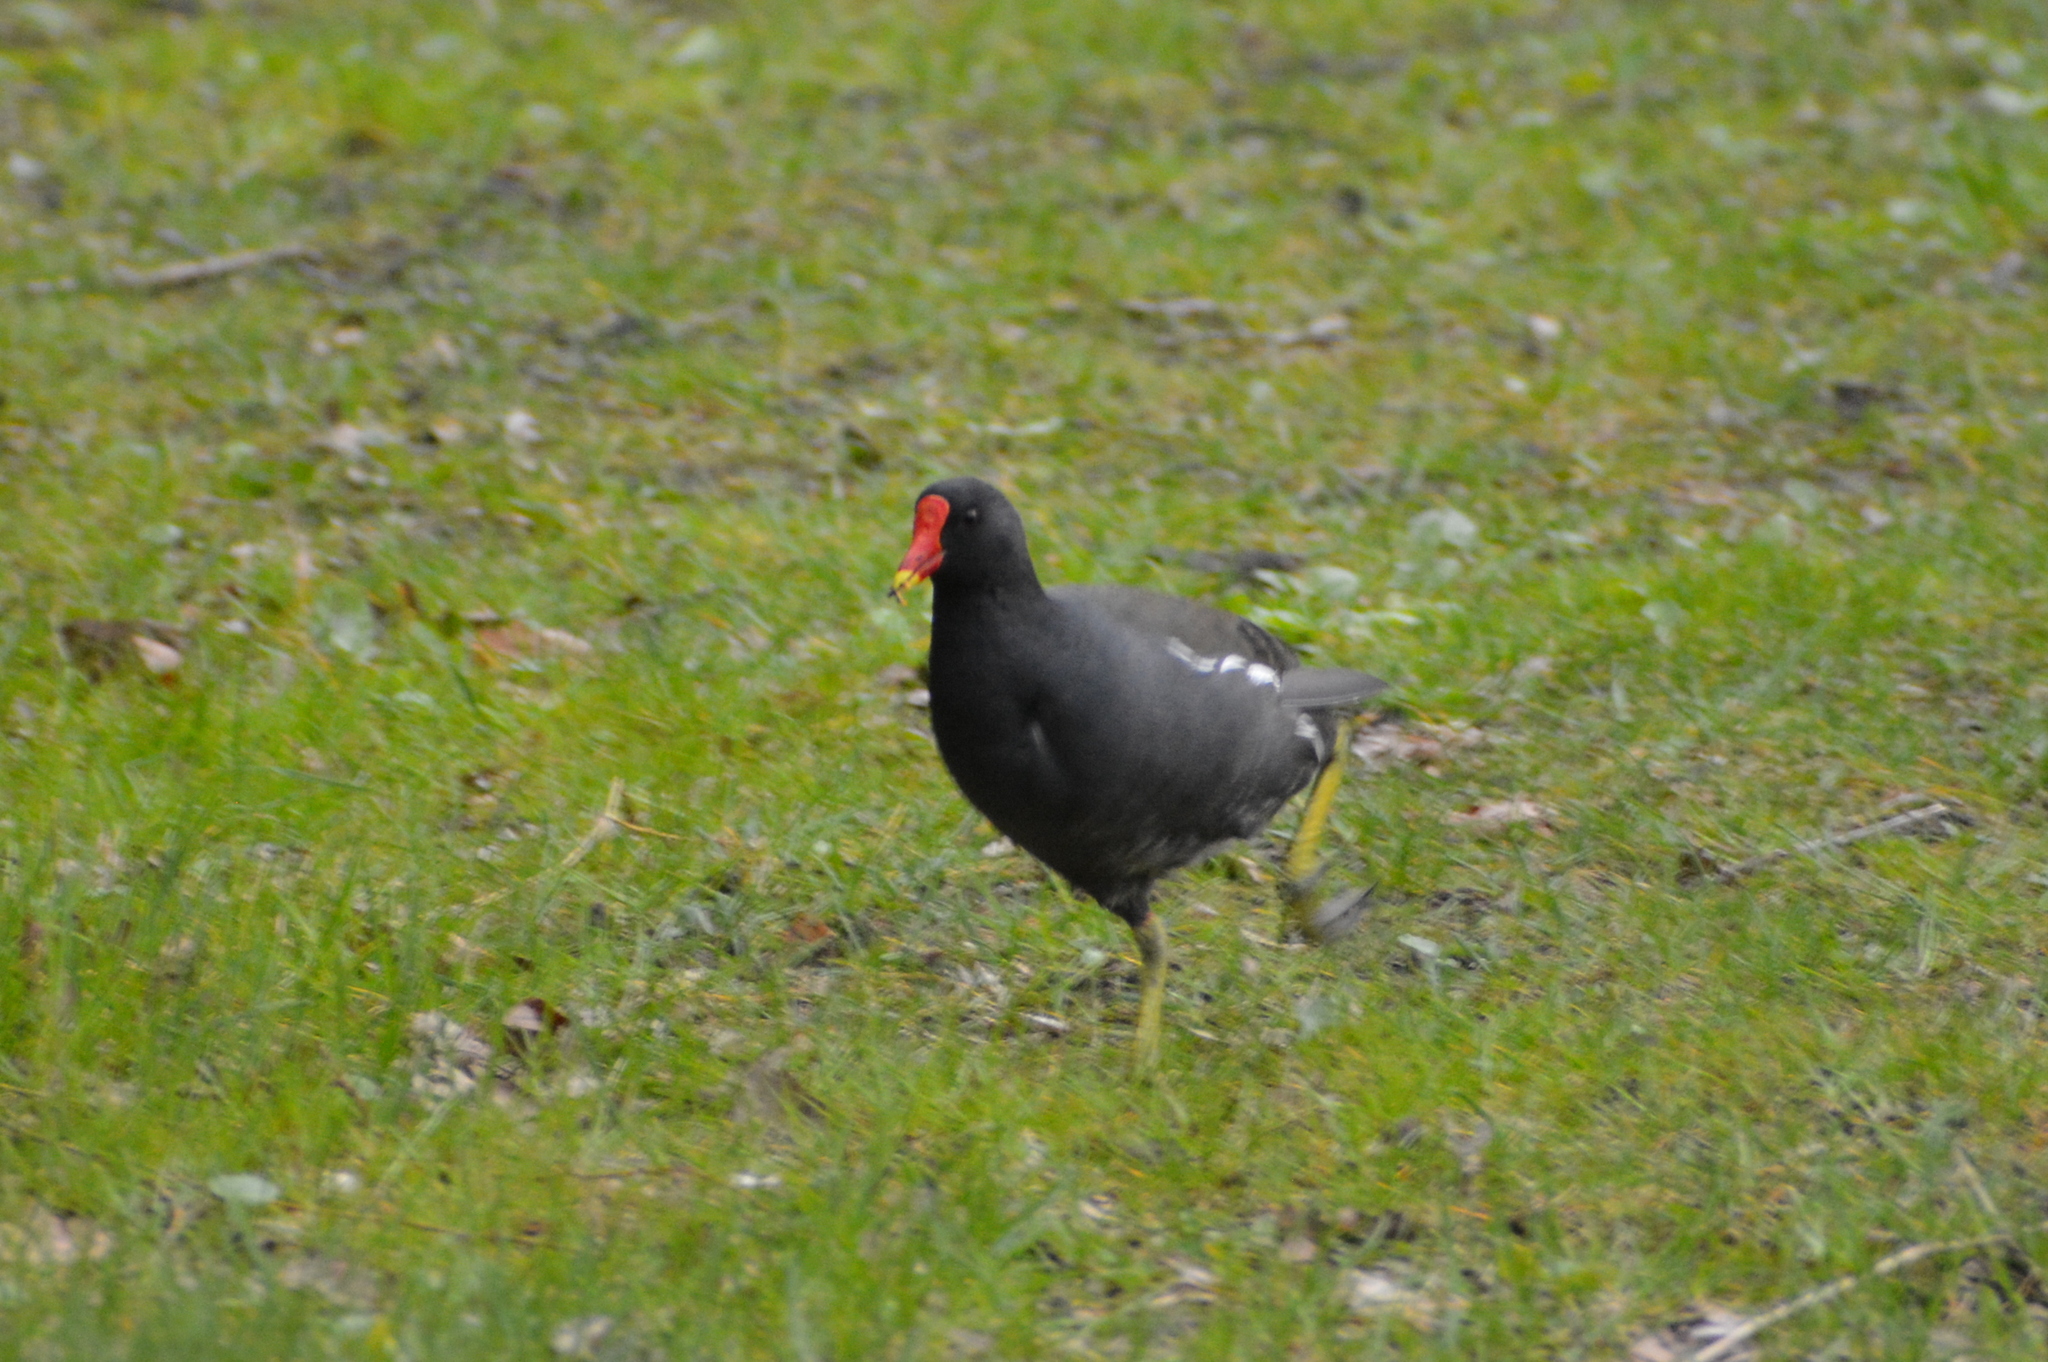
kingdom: Animalia
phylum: Chordata
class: Aves
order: Gruiformes
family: Rallidae
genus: Gallinula
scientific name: Gallinula chloropus
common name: Common moorhen
